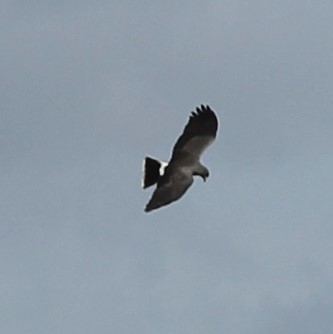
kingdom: Animalia
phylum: Chordata
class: Aves
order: Accipitriformes
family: Accipitridae
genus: Rostrhamus
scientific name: Rostrhamus sociabilis
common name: Snail kite
